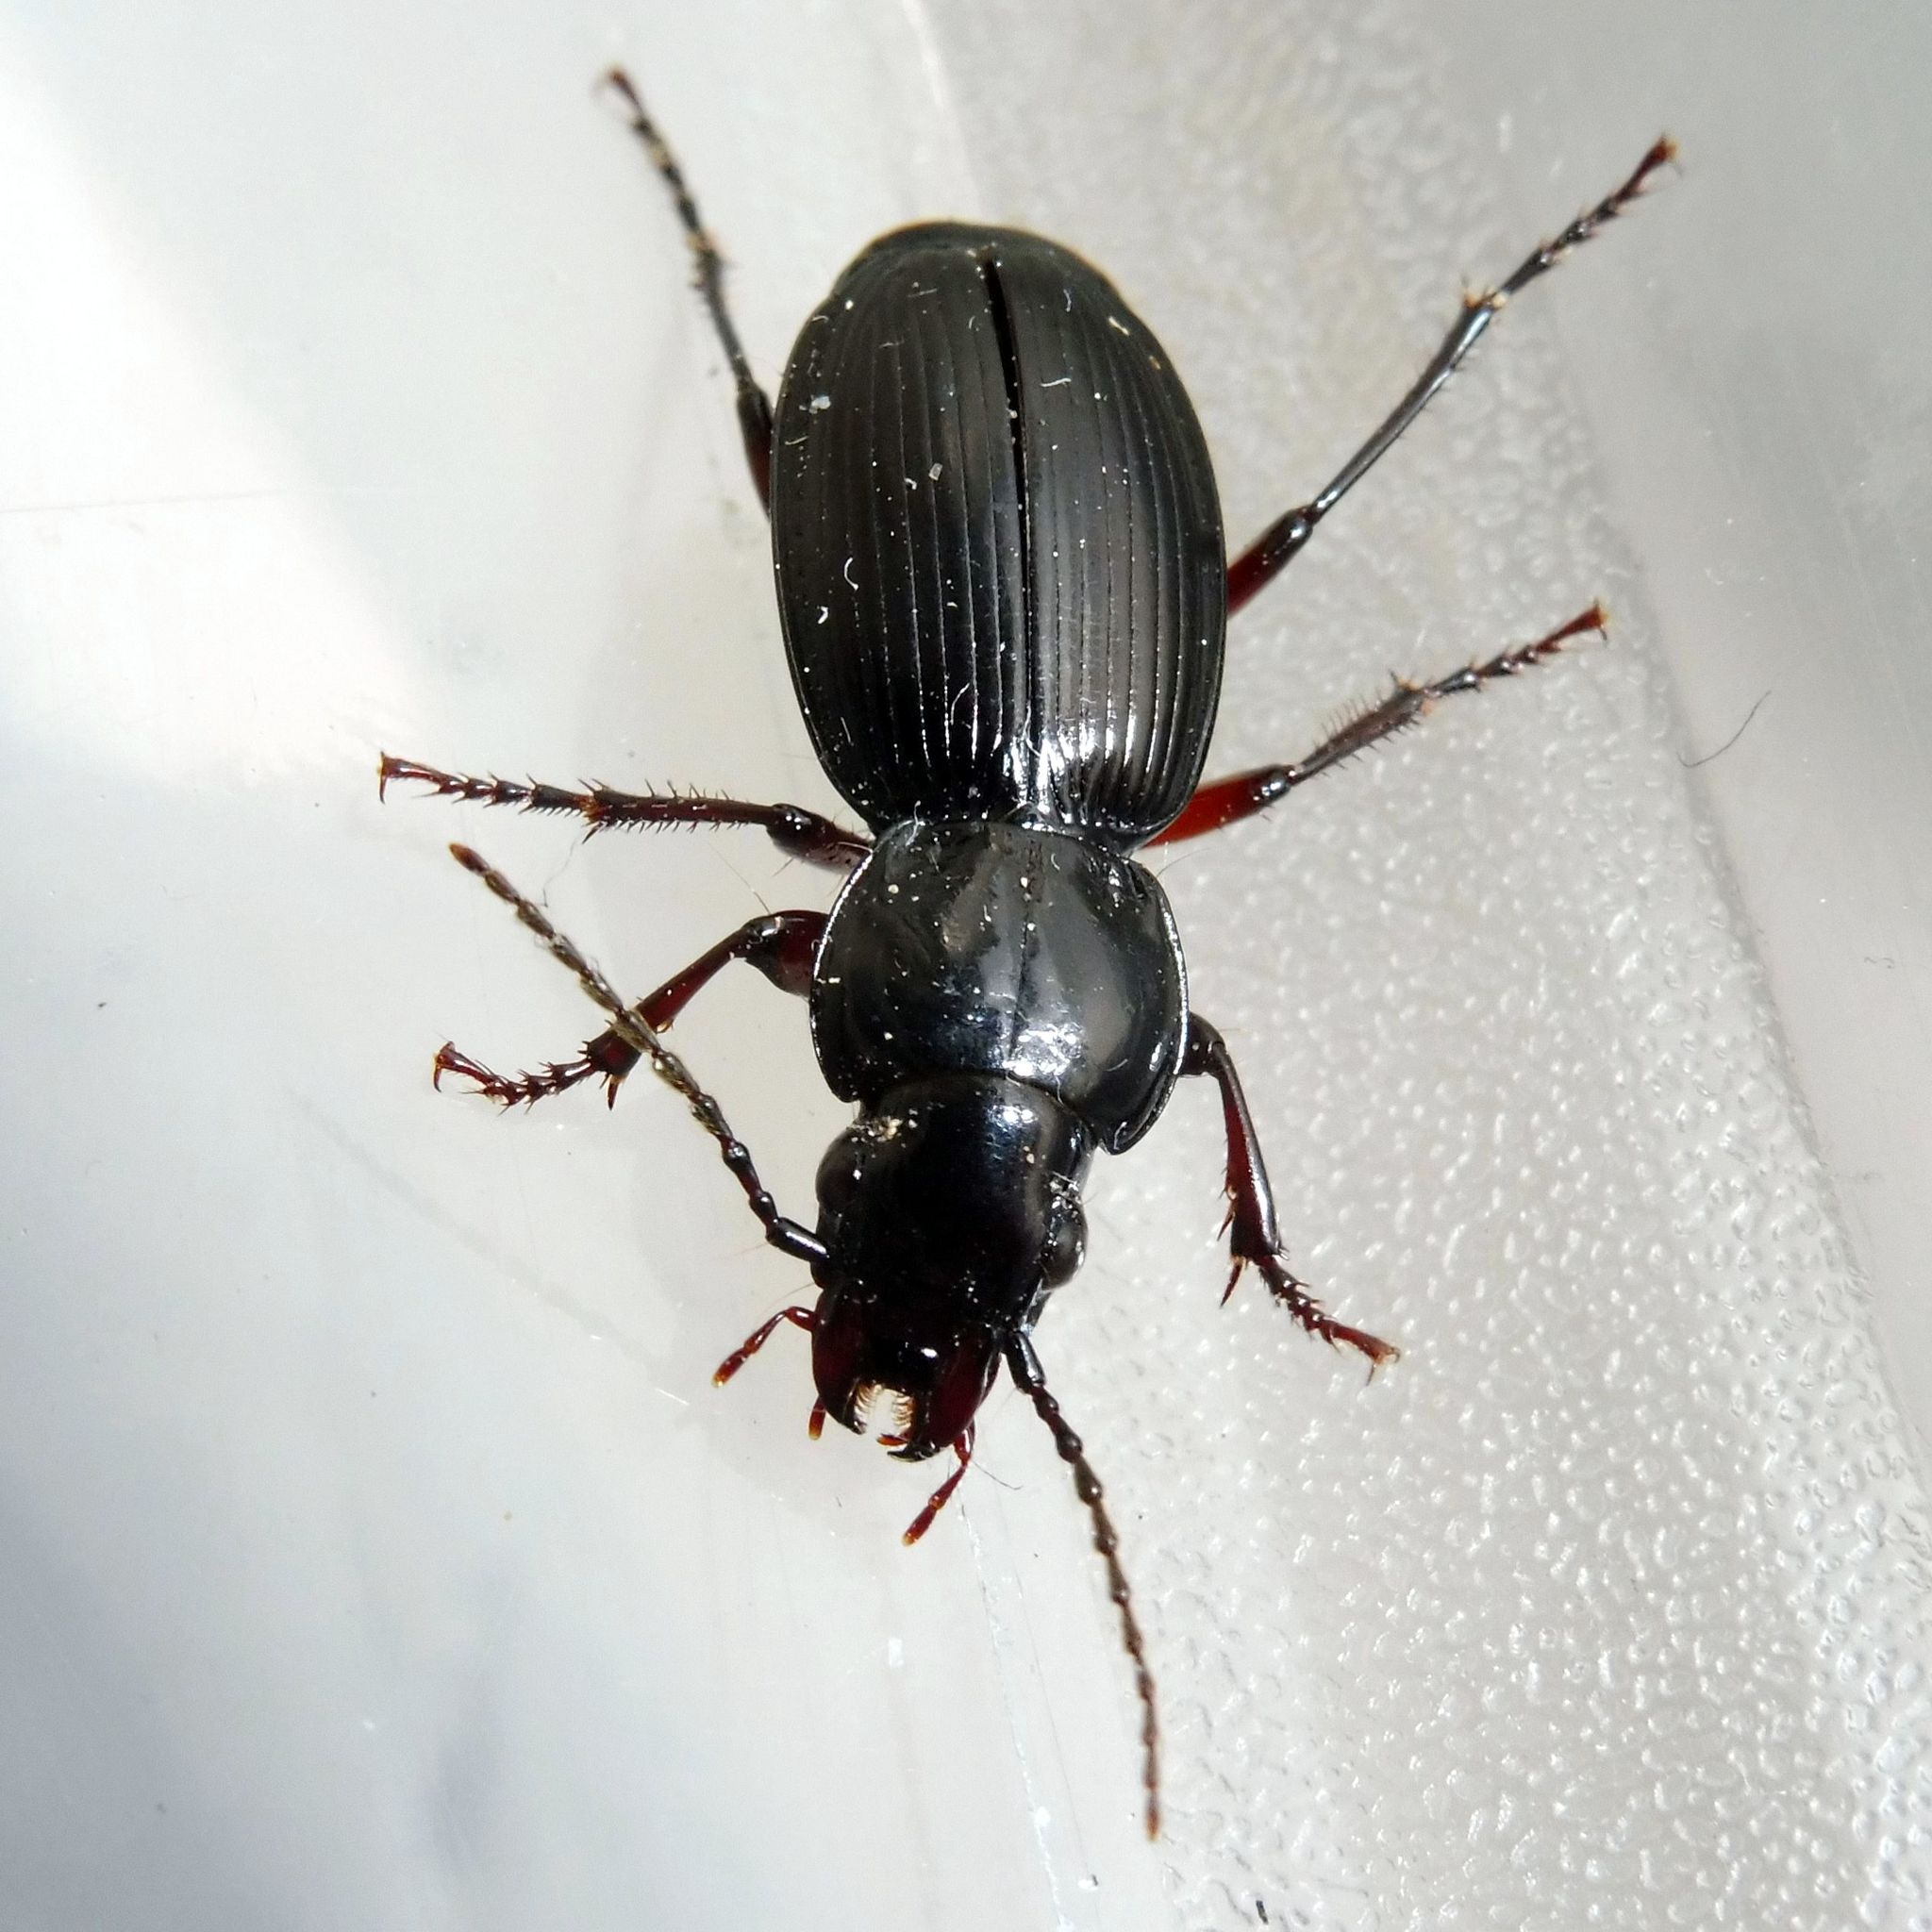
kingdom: Animalia
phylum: Arthropoda
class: Insecta
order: Coleoptera
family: Carabidae
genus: Pterostichus
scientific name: Pterostichus madidus
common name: Black clock
